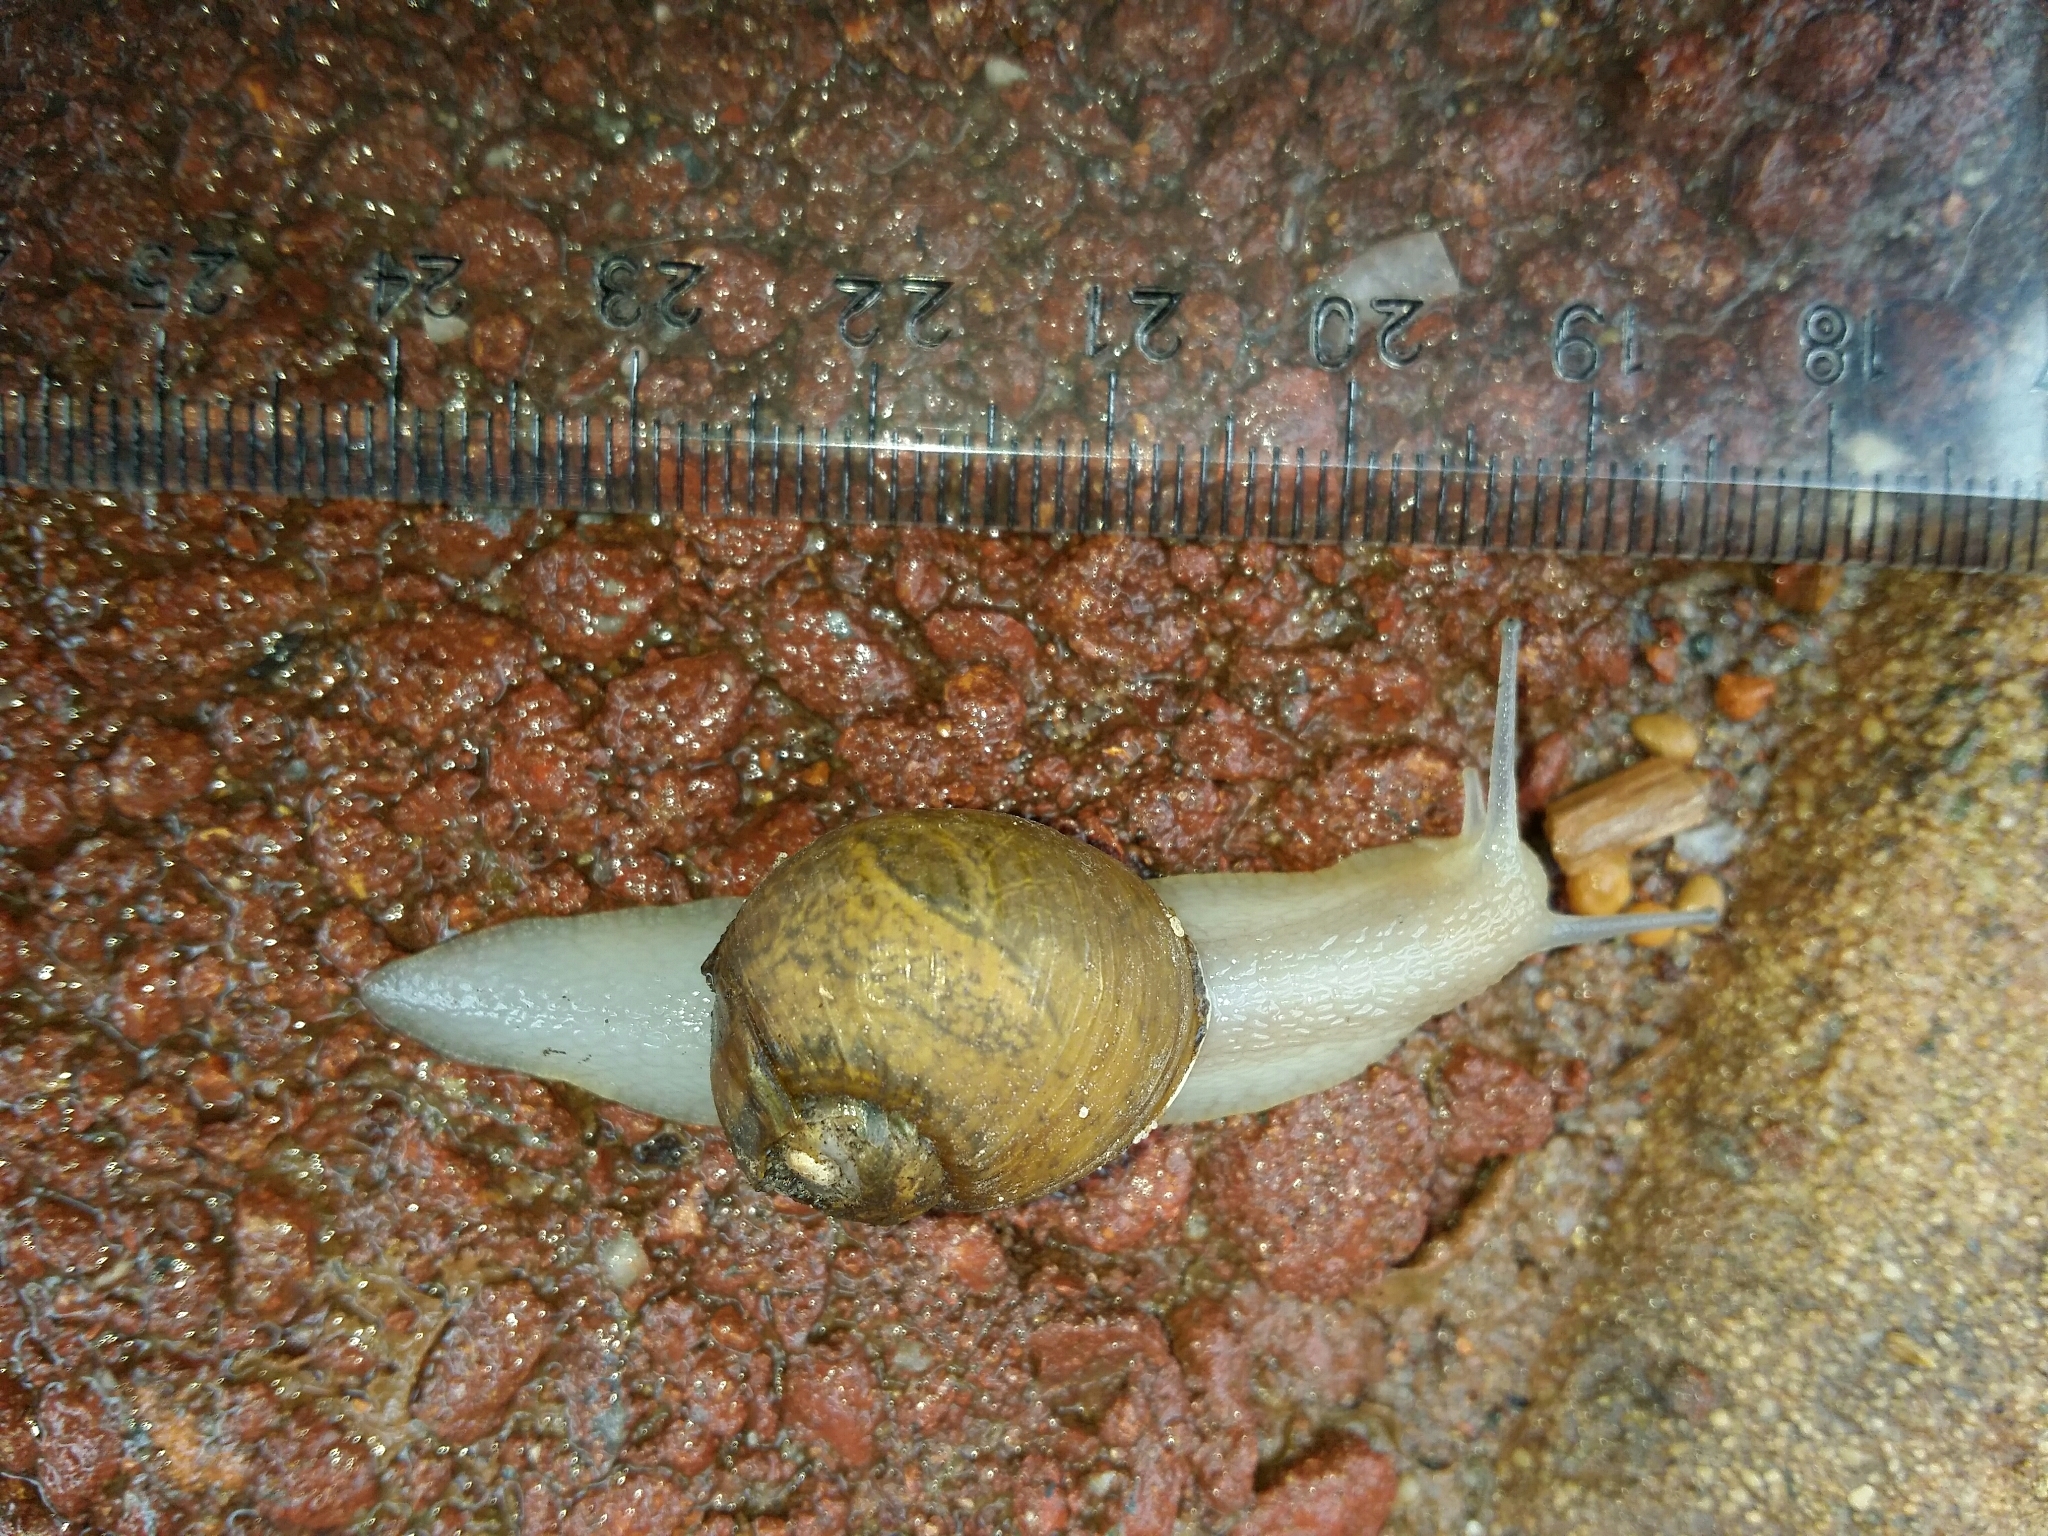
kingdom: Animalia
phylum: Mollusca
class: Gastropoda
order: Stylommatophora
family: Helicidae
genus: Cantareus
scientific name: Cantareus apertus
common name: Green gardensnail
